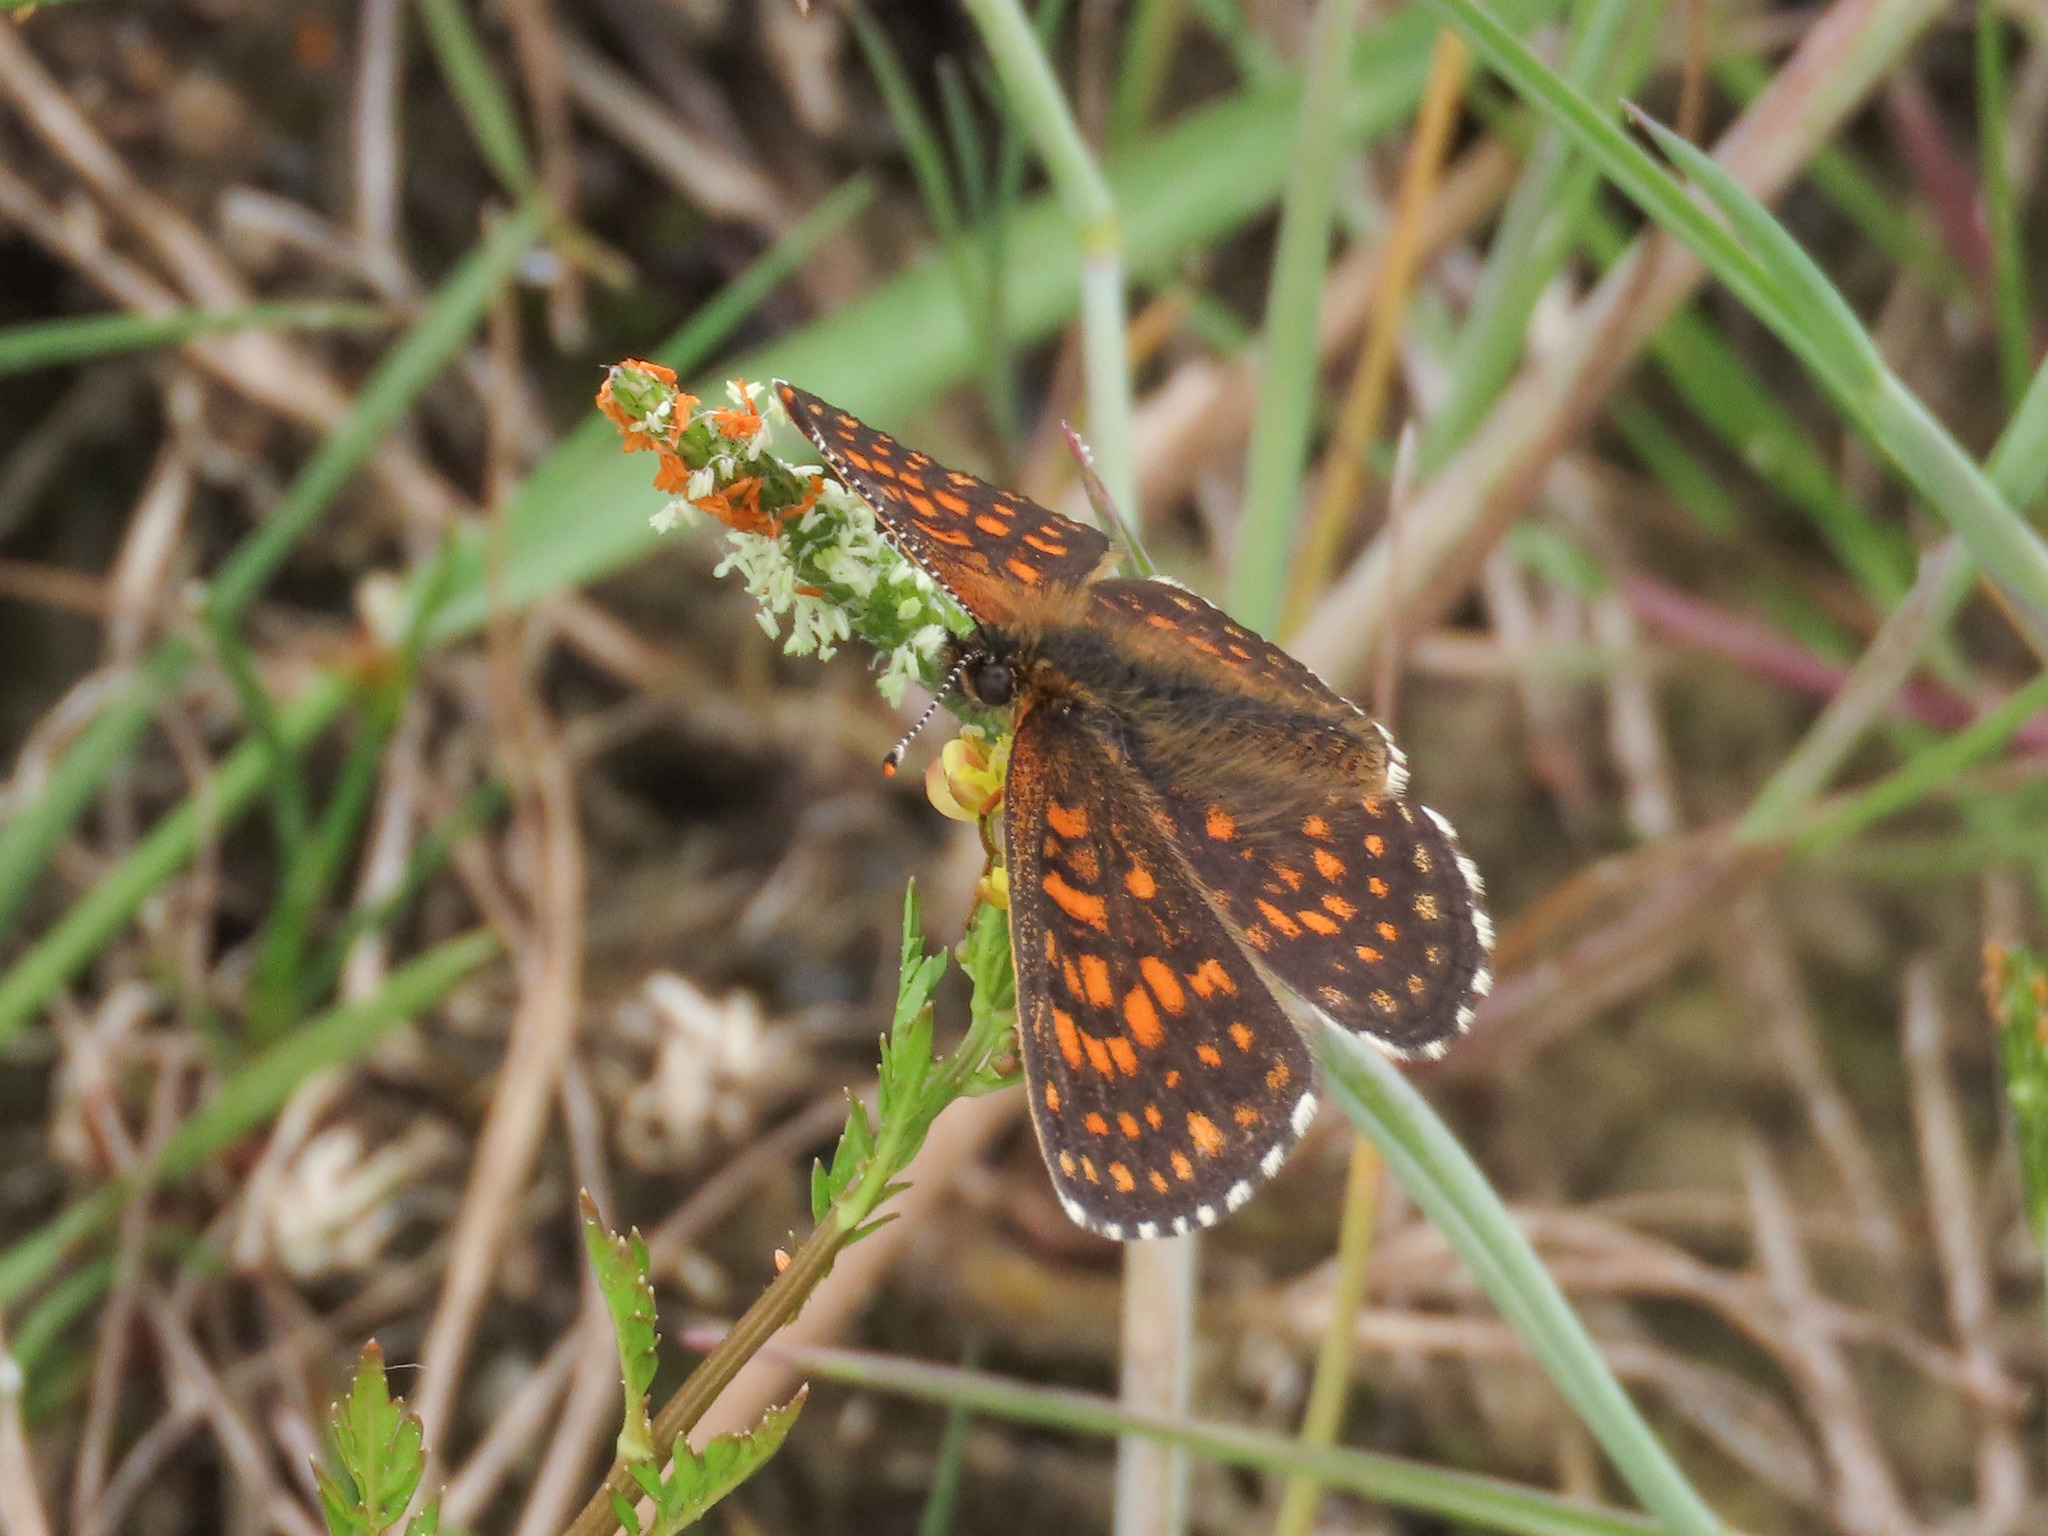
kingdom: Animalia
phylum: Arthropoda
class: Insecta
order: Lepidoptera
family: Nymphalidae
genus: Melitaea
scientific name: Melitaea diamina
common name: False heath fritillary
